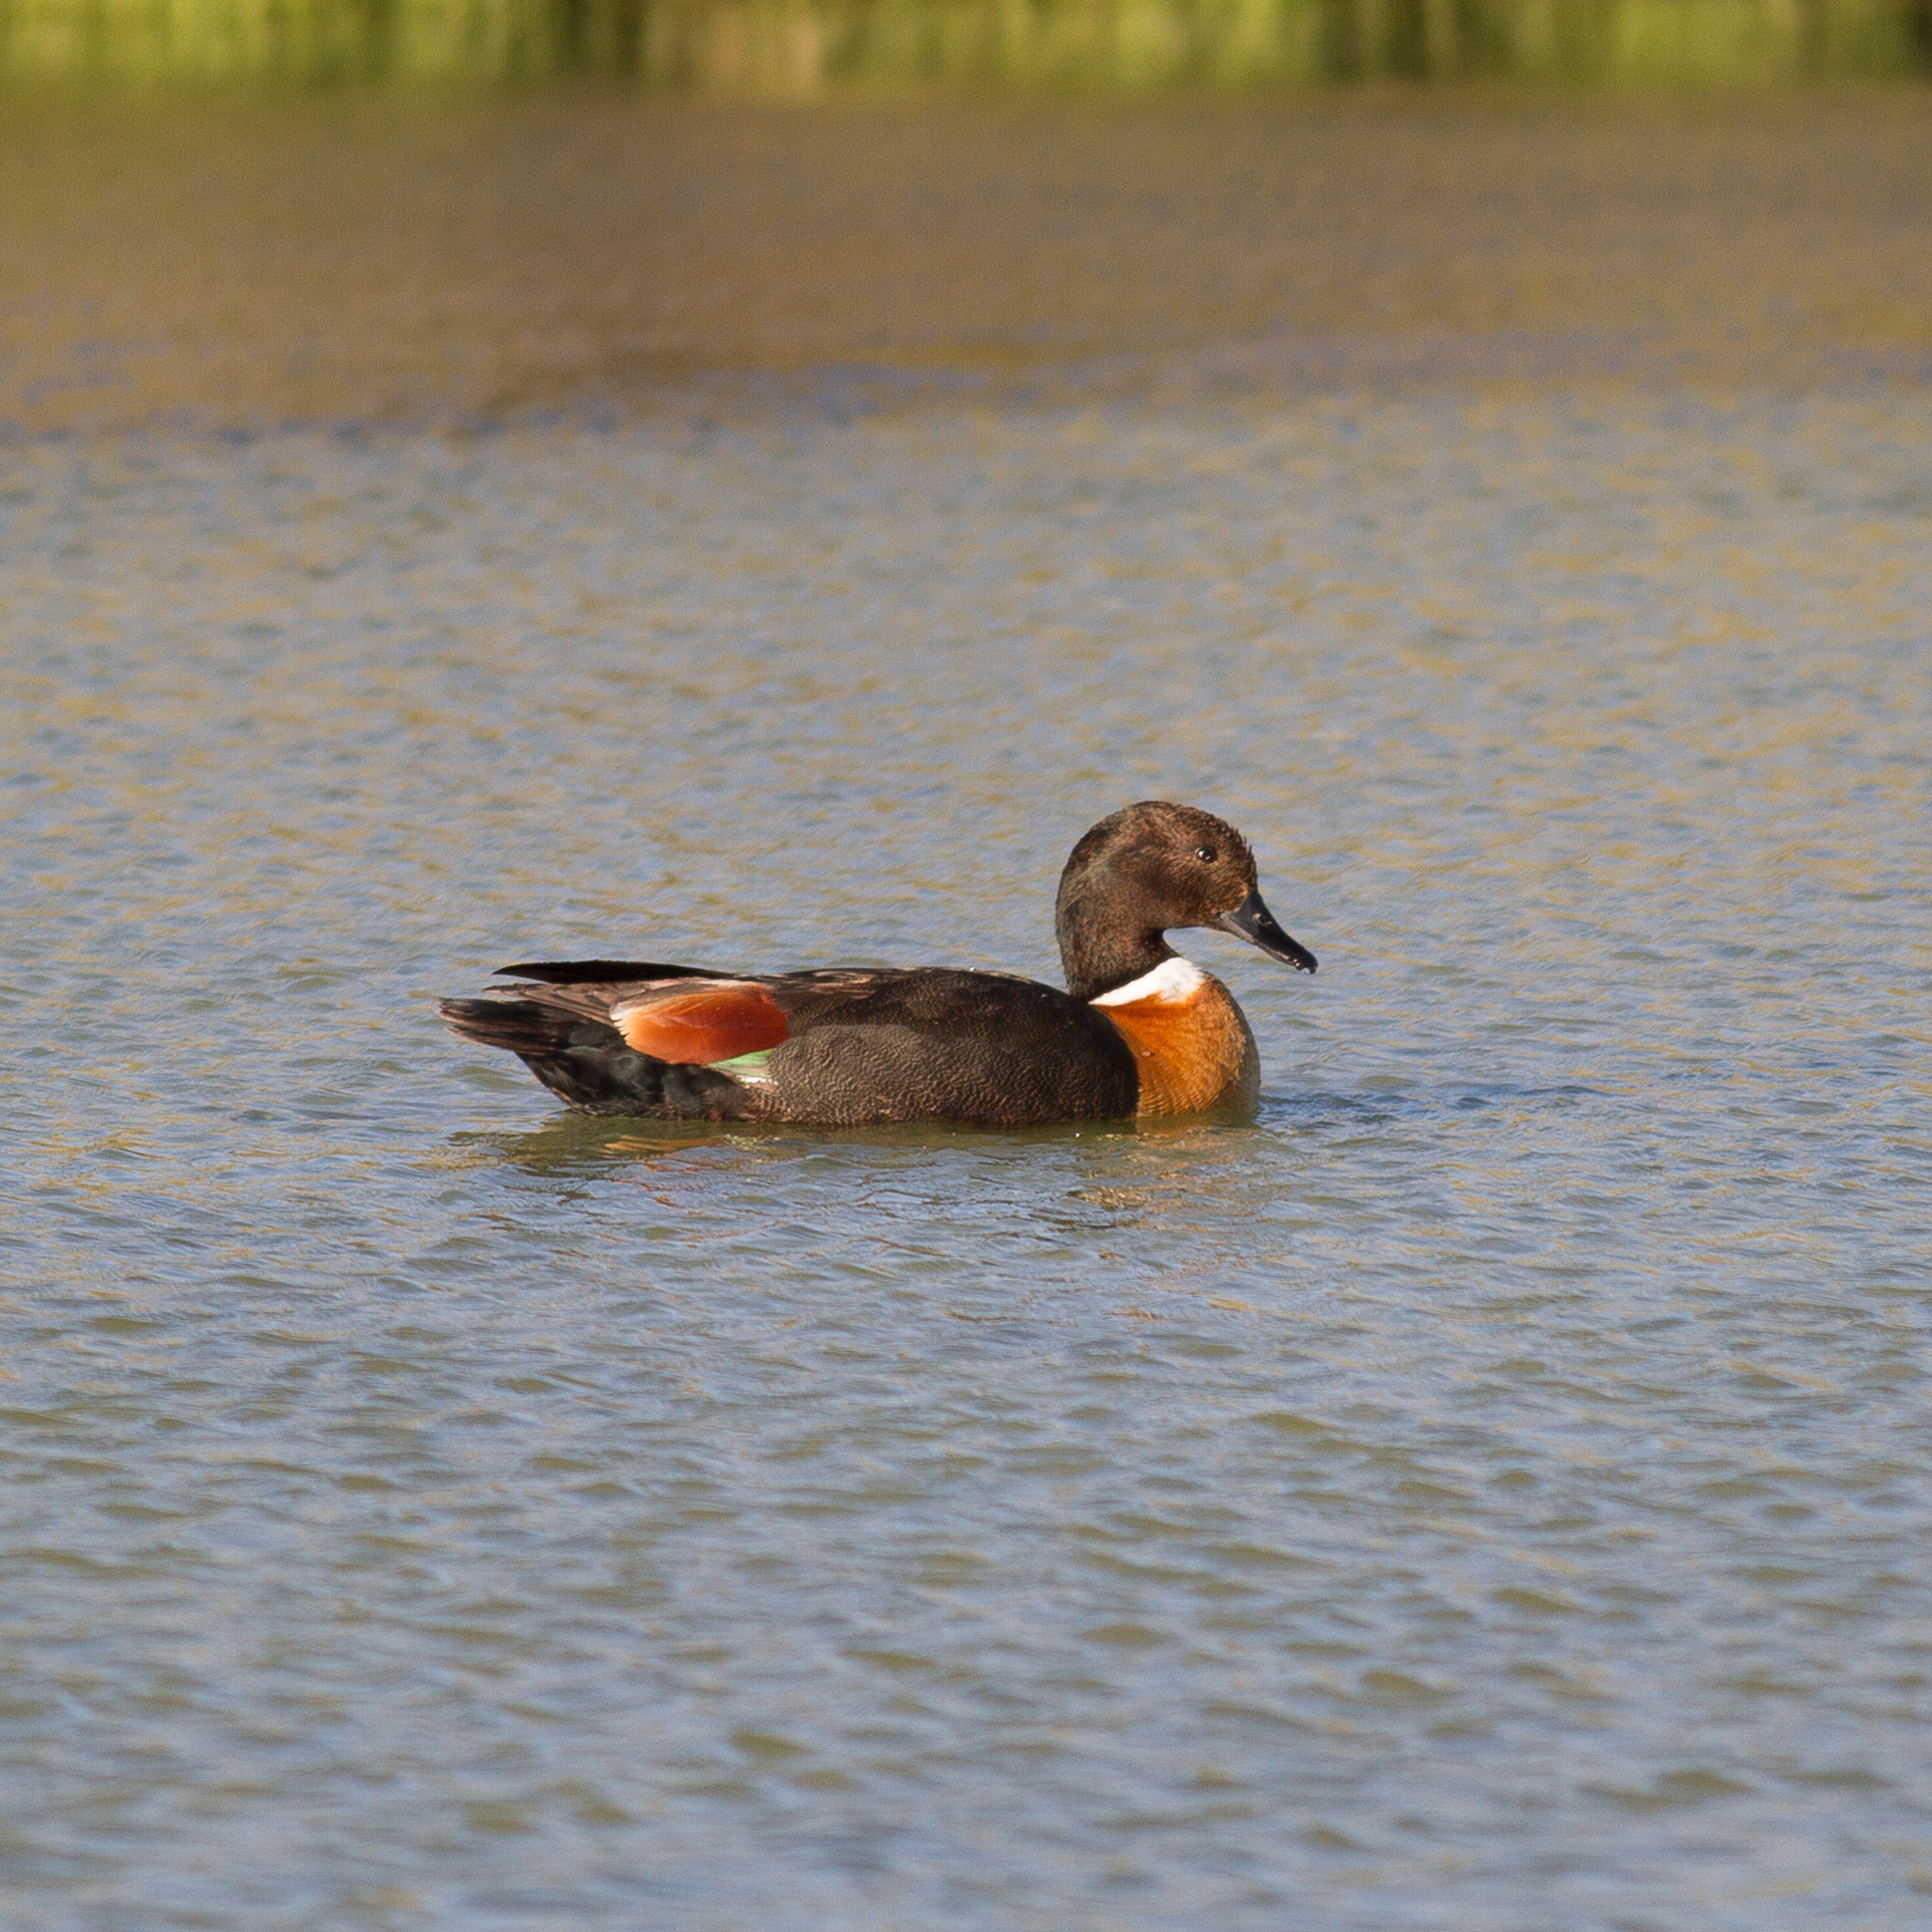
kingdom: Animalia
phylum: Chordata
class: Aves
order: Anseriformes
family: Anatidae
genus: Tadorna
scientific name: Tadorna tadornoides
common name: Australian shelduck
